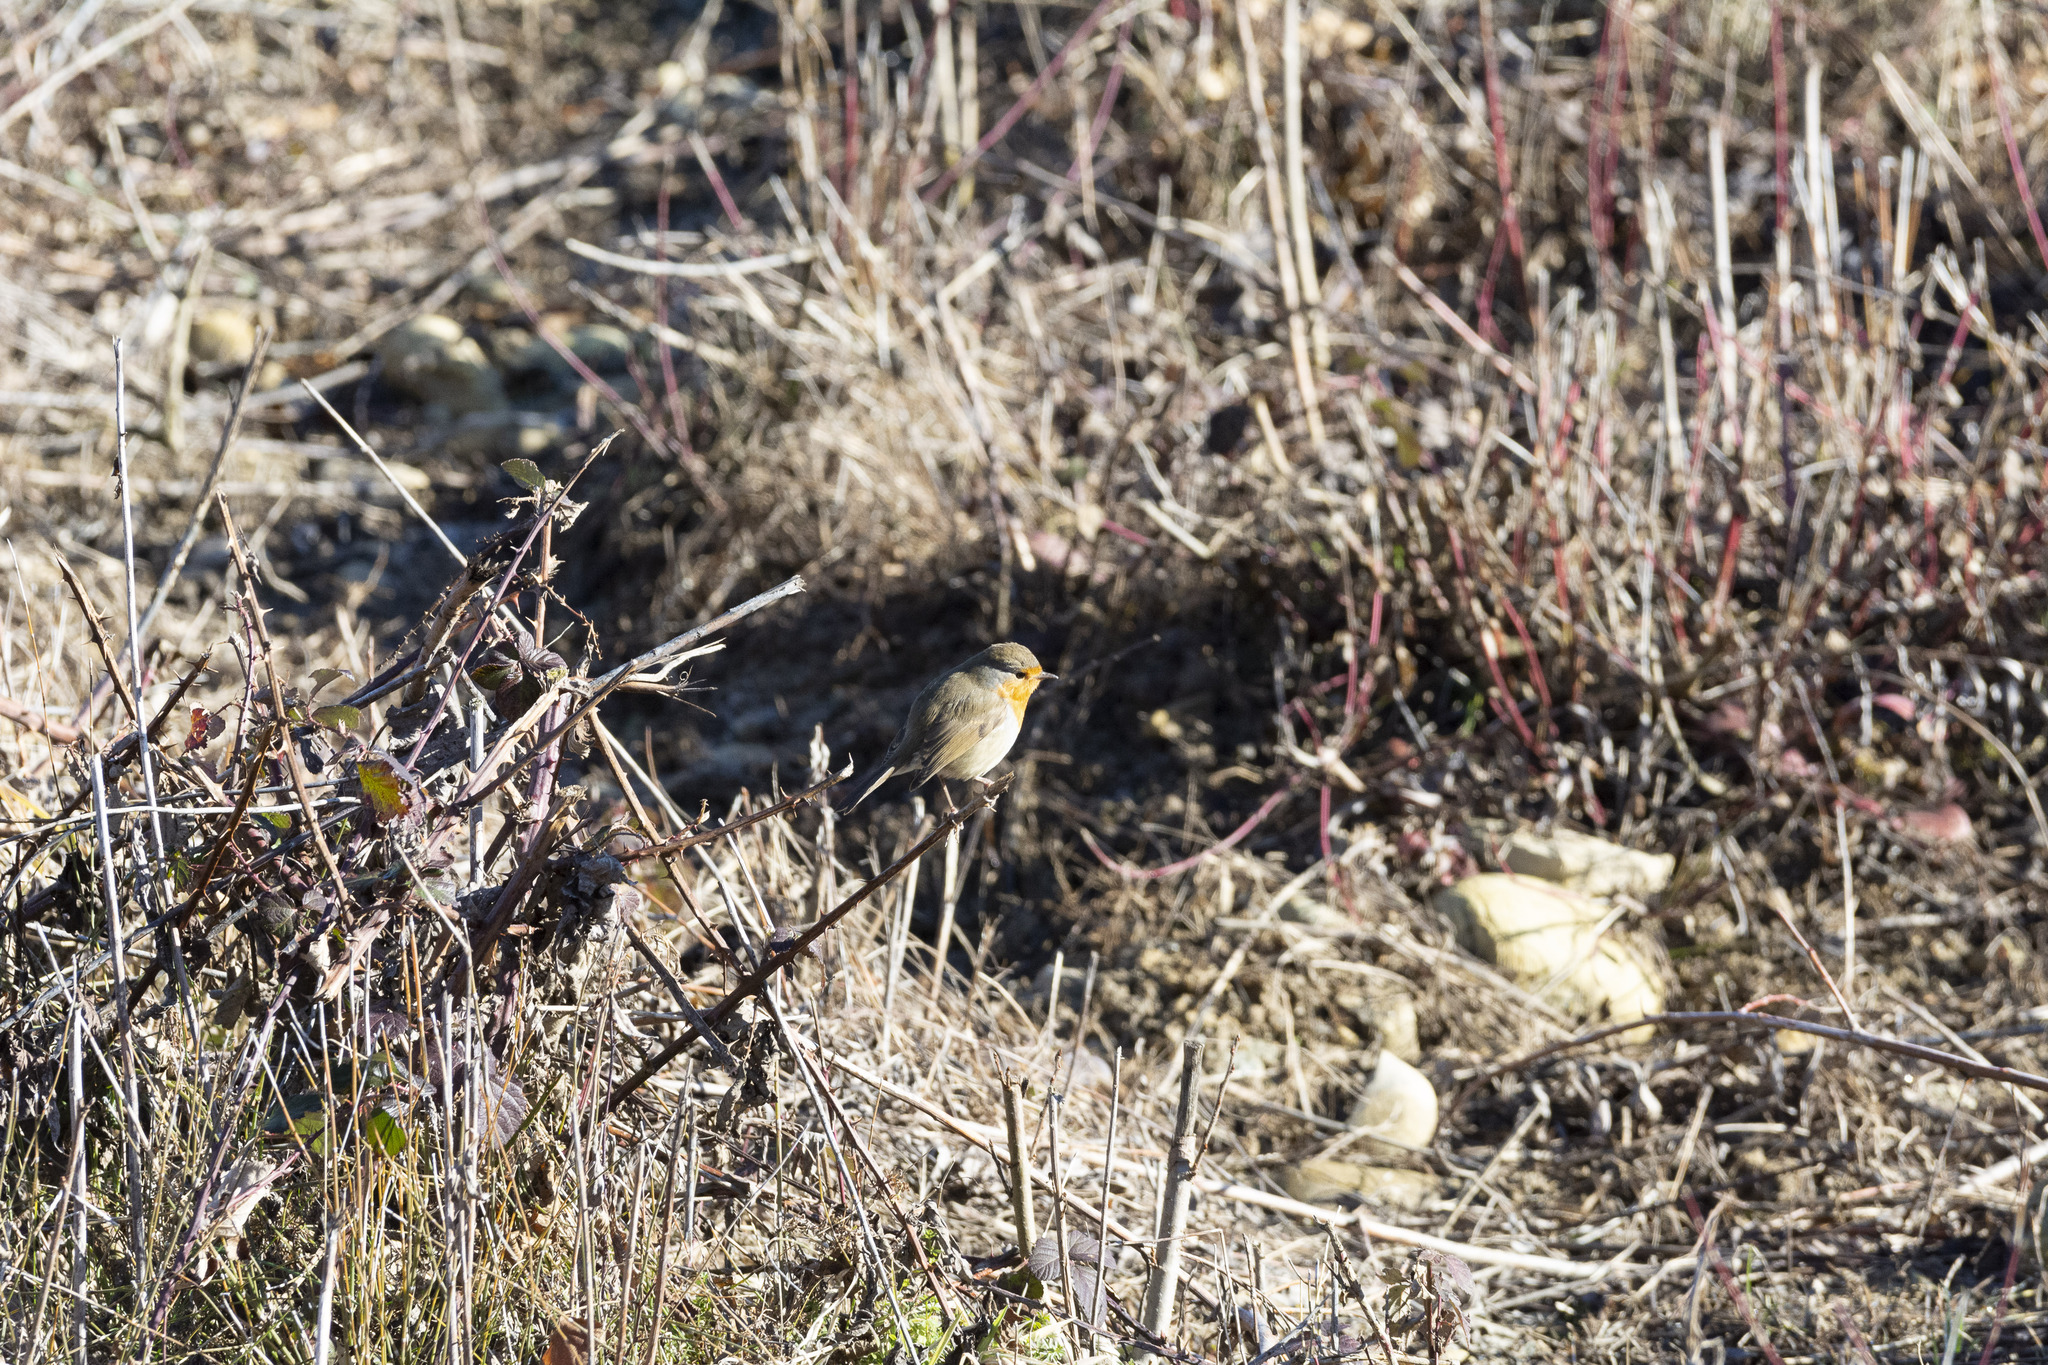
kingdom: Animalia
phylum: Chordata
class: Aves
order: Passeriformes
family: Muscicapidae
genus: Erithacus
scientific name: Erithacus rubecula
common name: European robin
